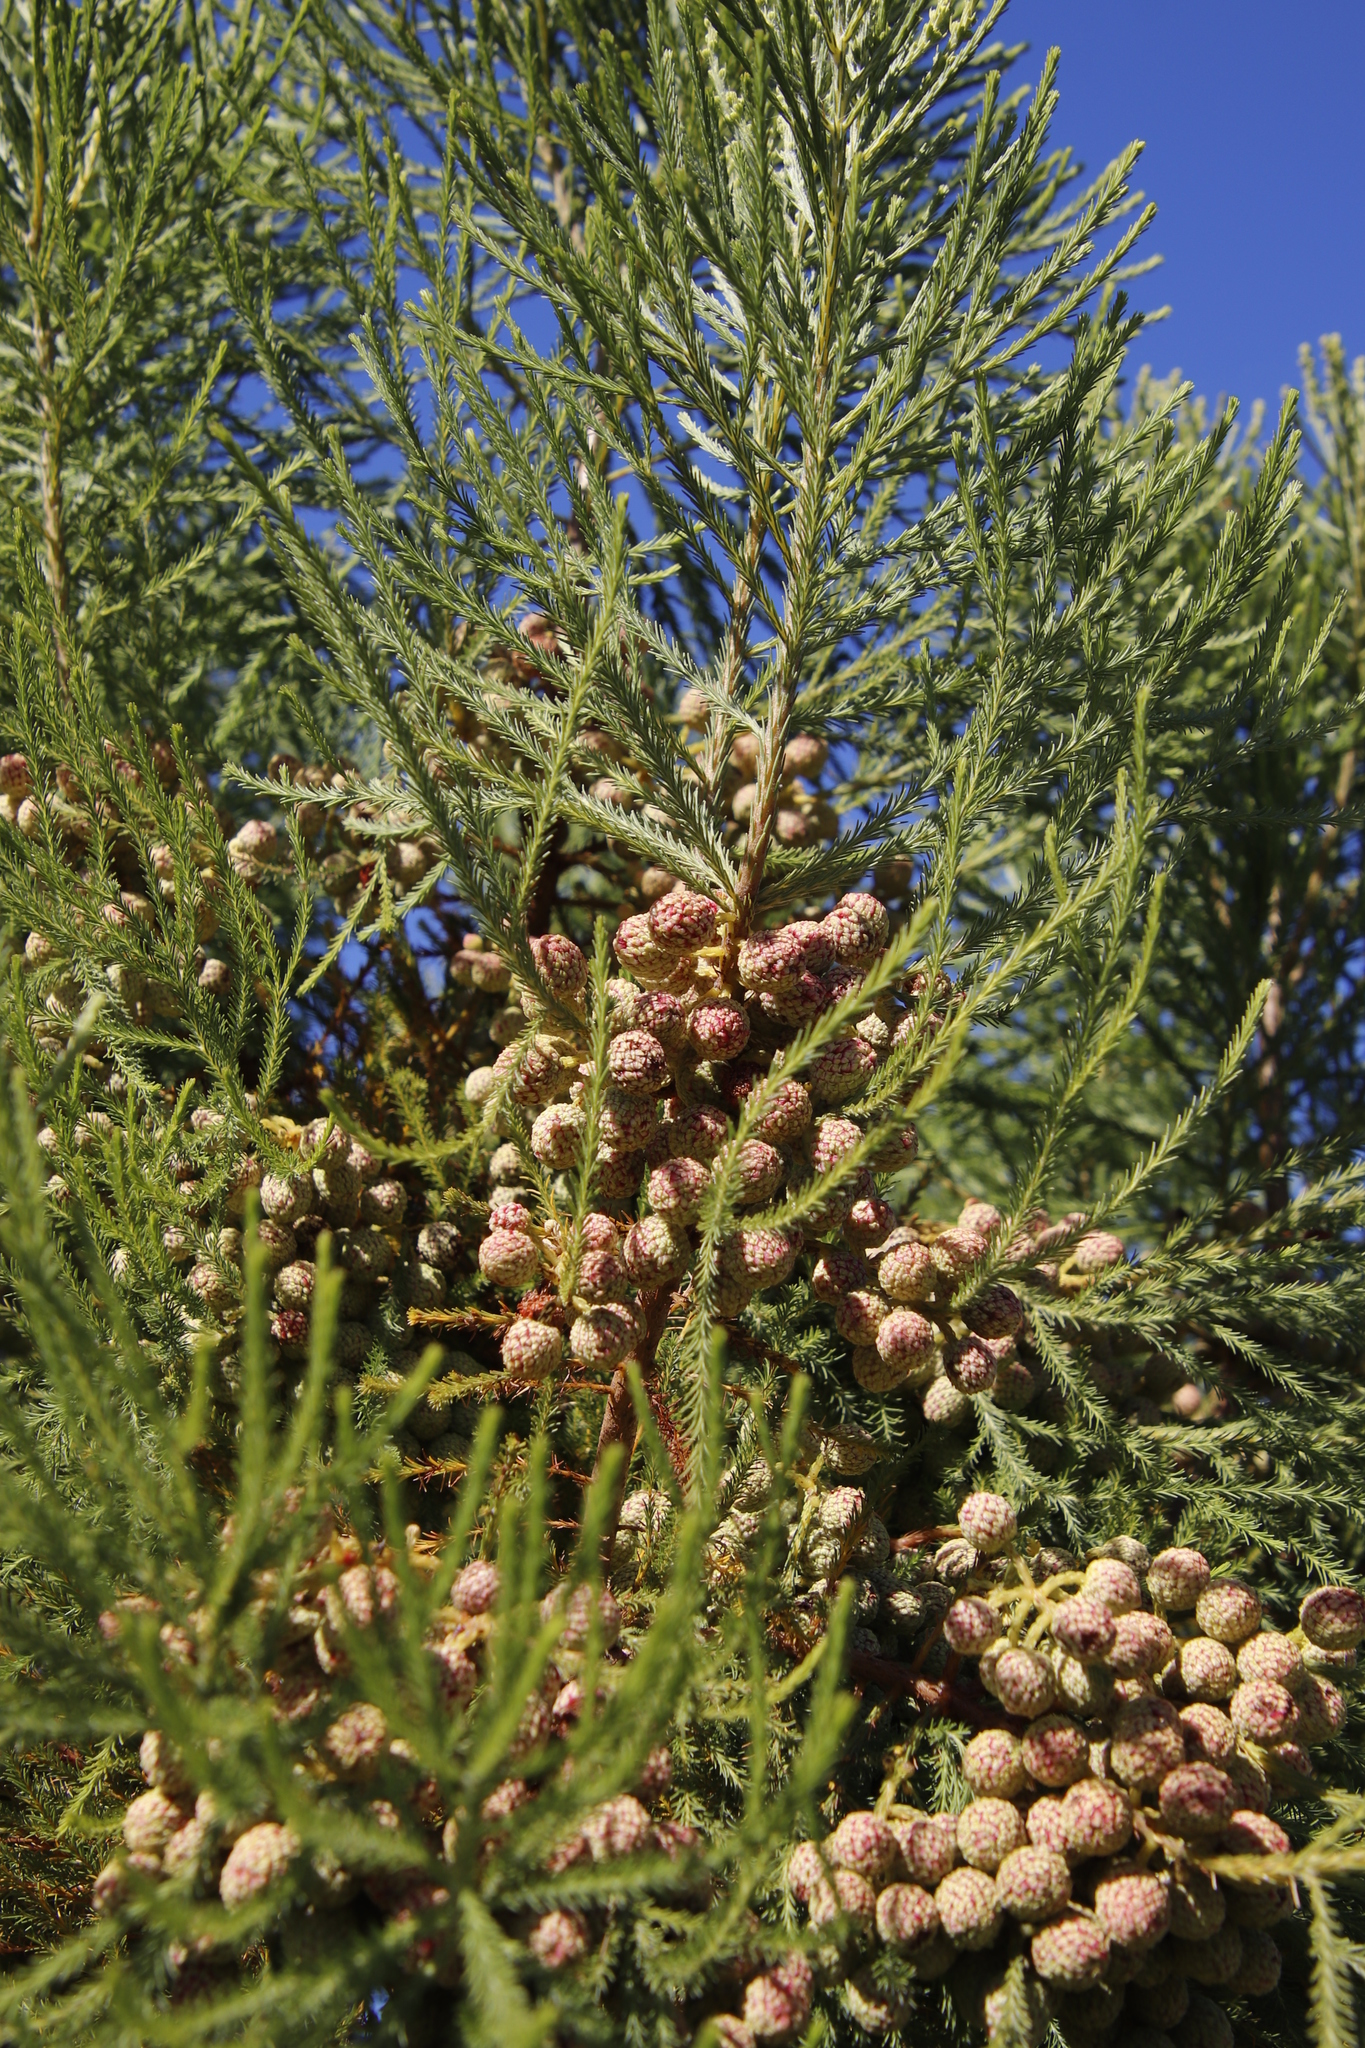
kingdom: Plantae
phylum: Tracheophyta
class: Magnoliopsida
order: Bruniales
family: Bruniaceae
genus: Berzelia
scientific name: Berzelia lanuginosa
